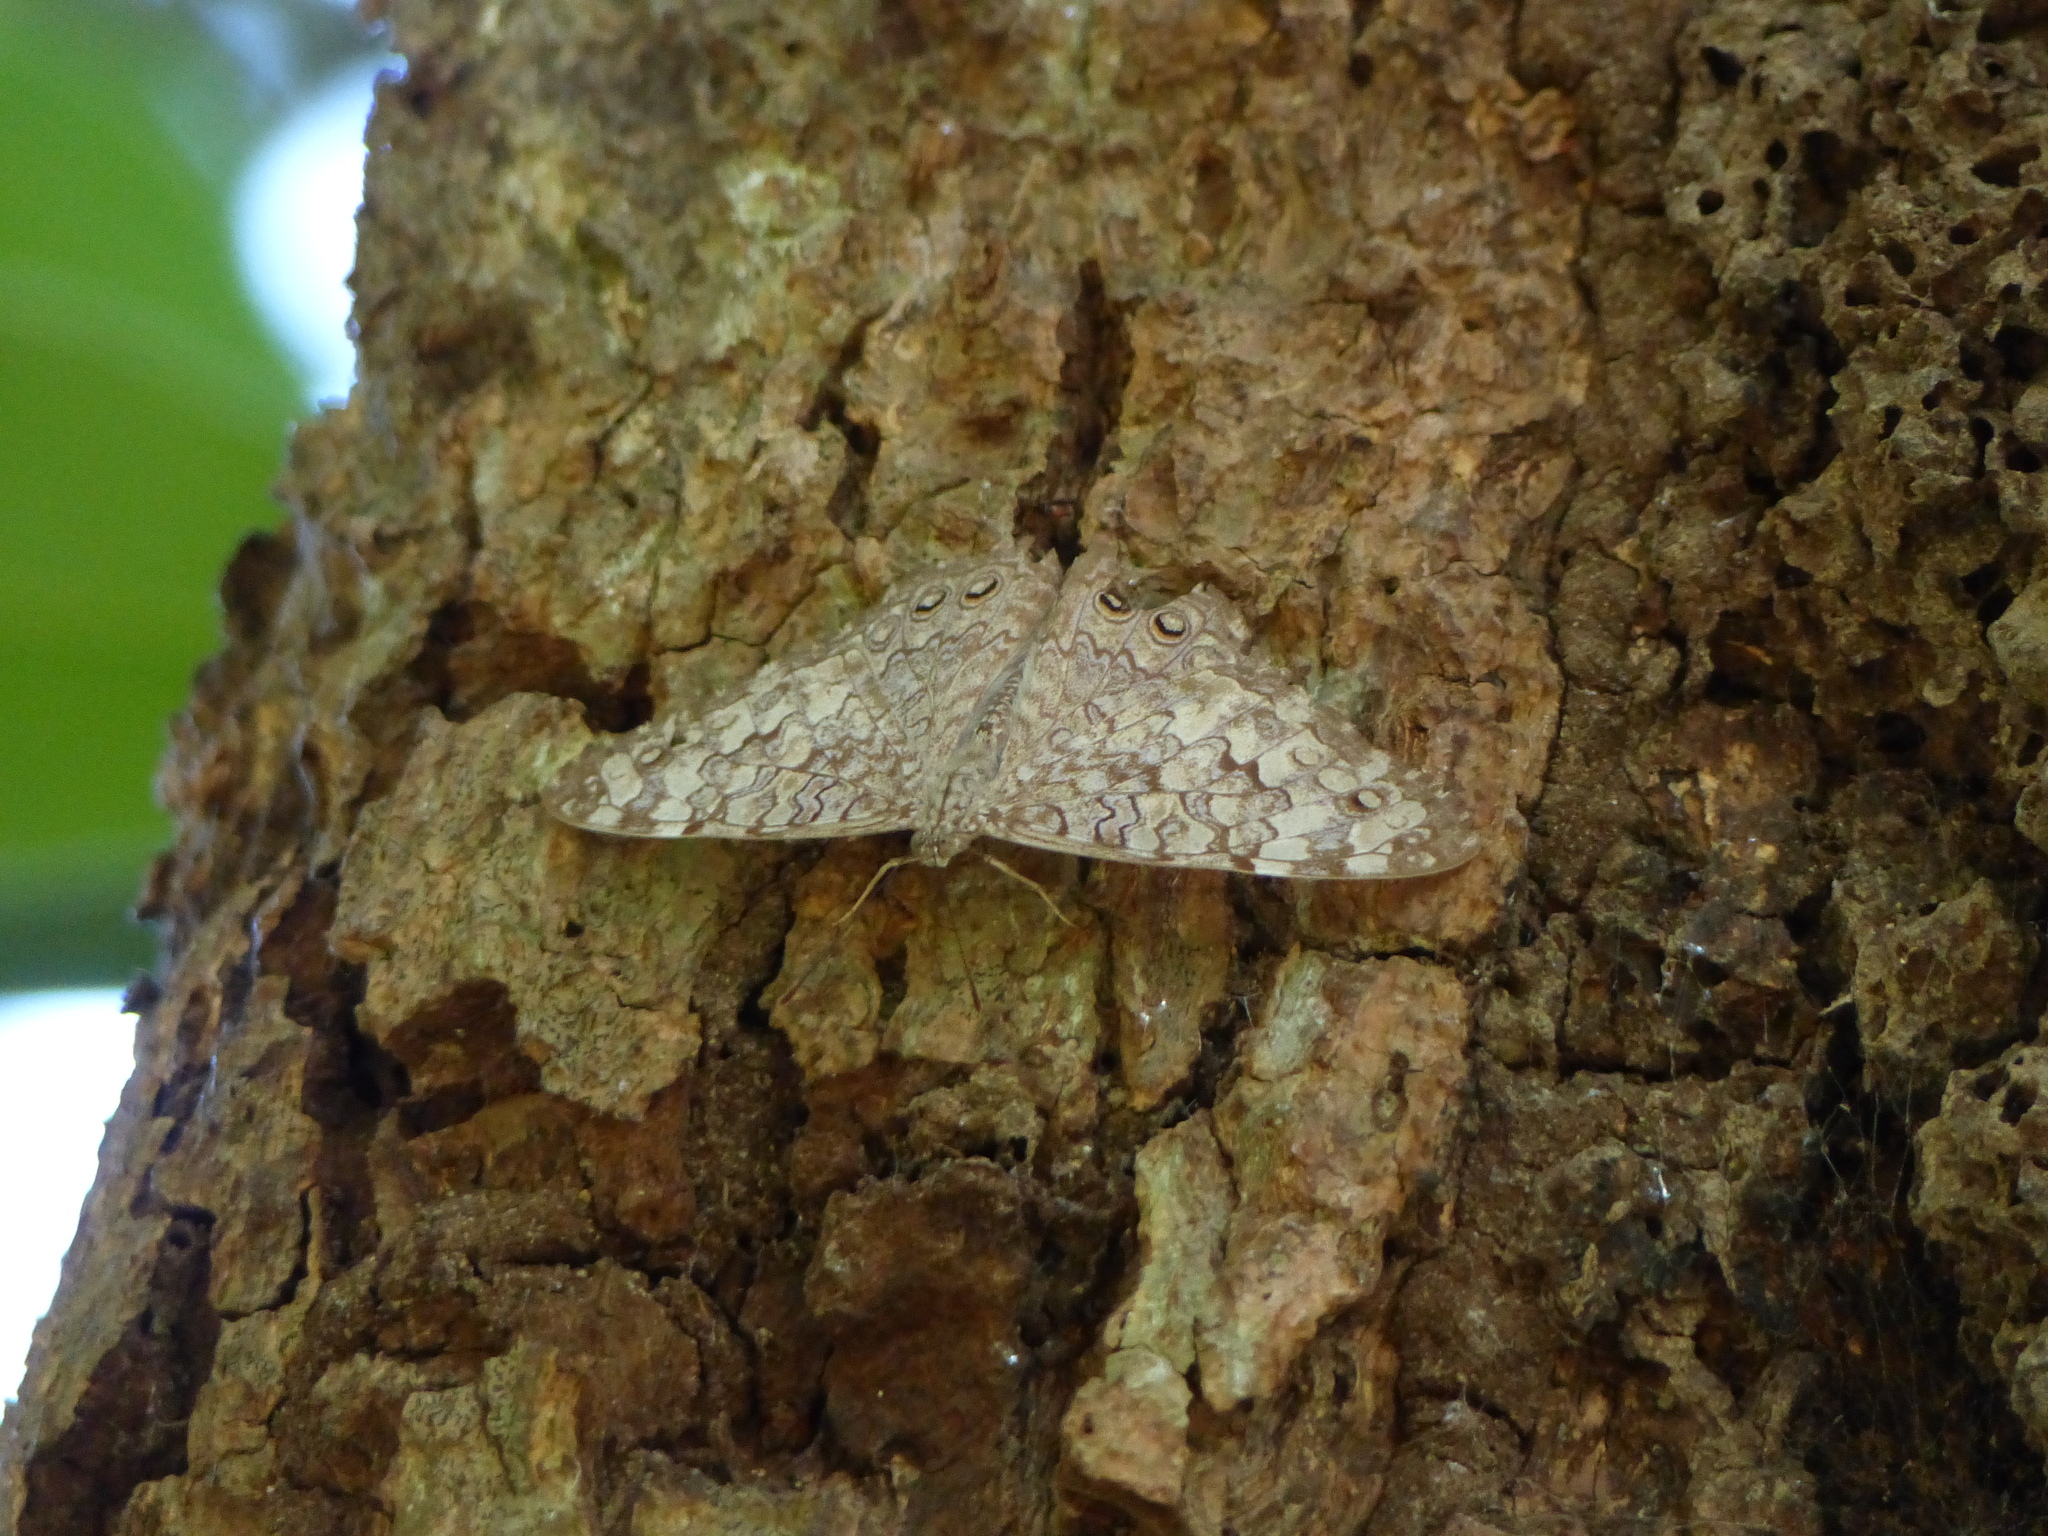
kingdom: Animalia
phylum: Arthropoda
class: Insecta
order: Lepidoptera
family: Nymphalidae
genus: Hamadryas
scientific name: Hamadryas februa
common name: Gray cracker
